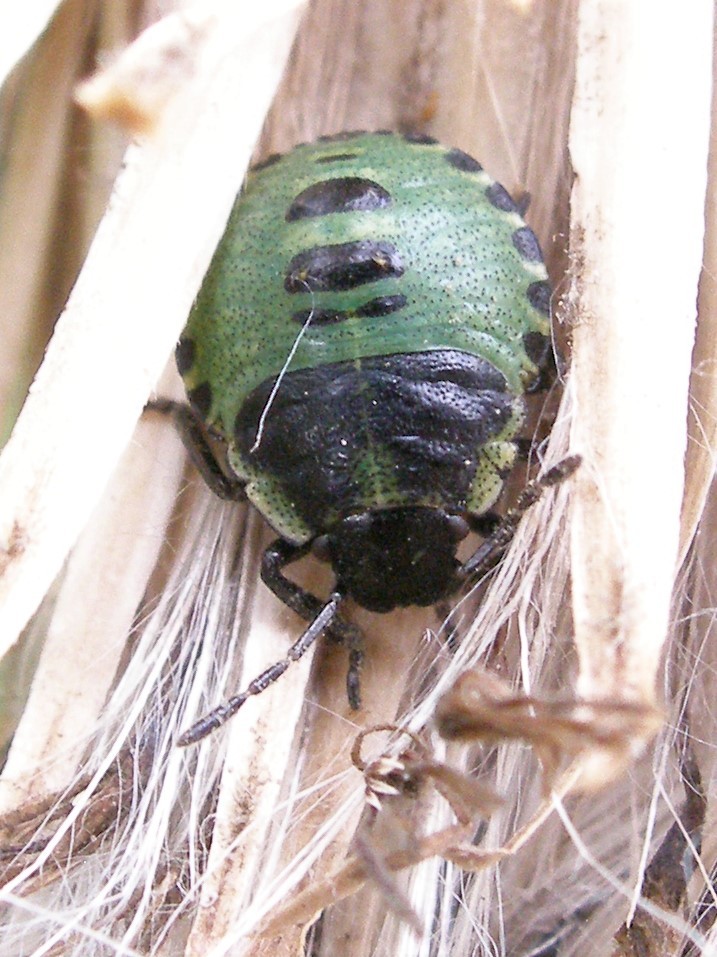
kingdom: Animalia
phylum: Arthropoda
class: Insecta
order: Hemiptera
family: Pentatomidae
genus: Palomena
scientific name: Palomena prasina
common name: Green shieldbug
